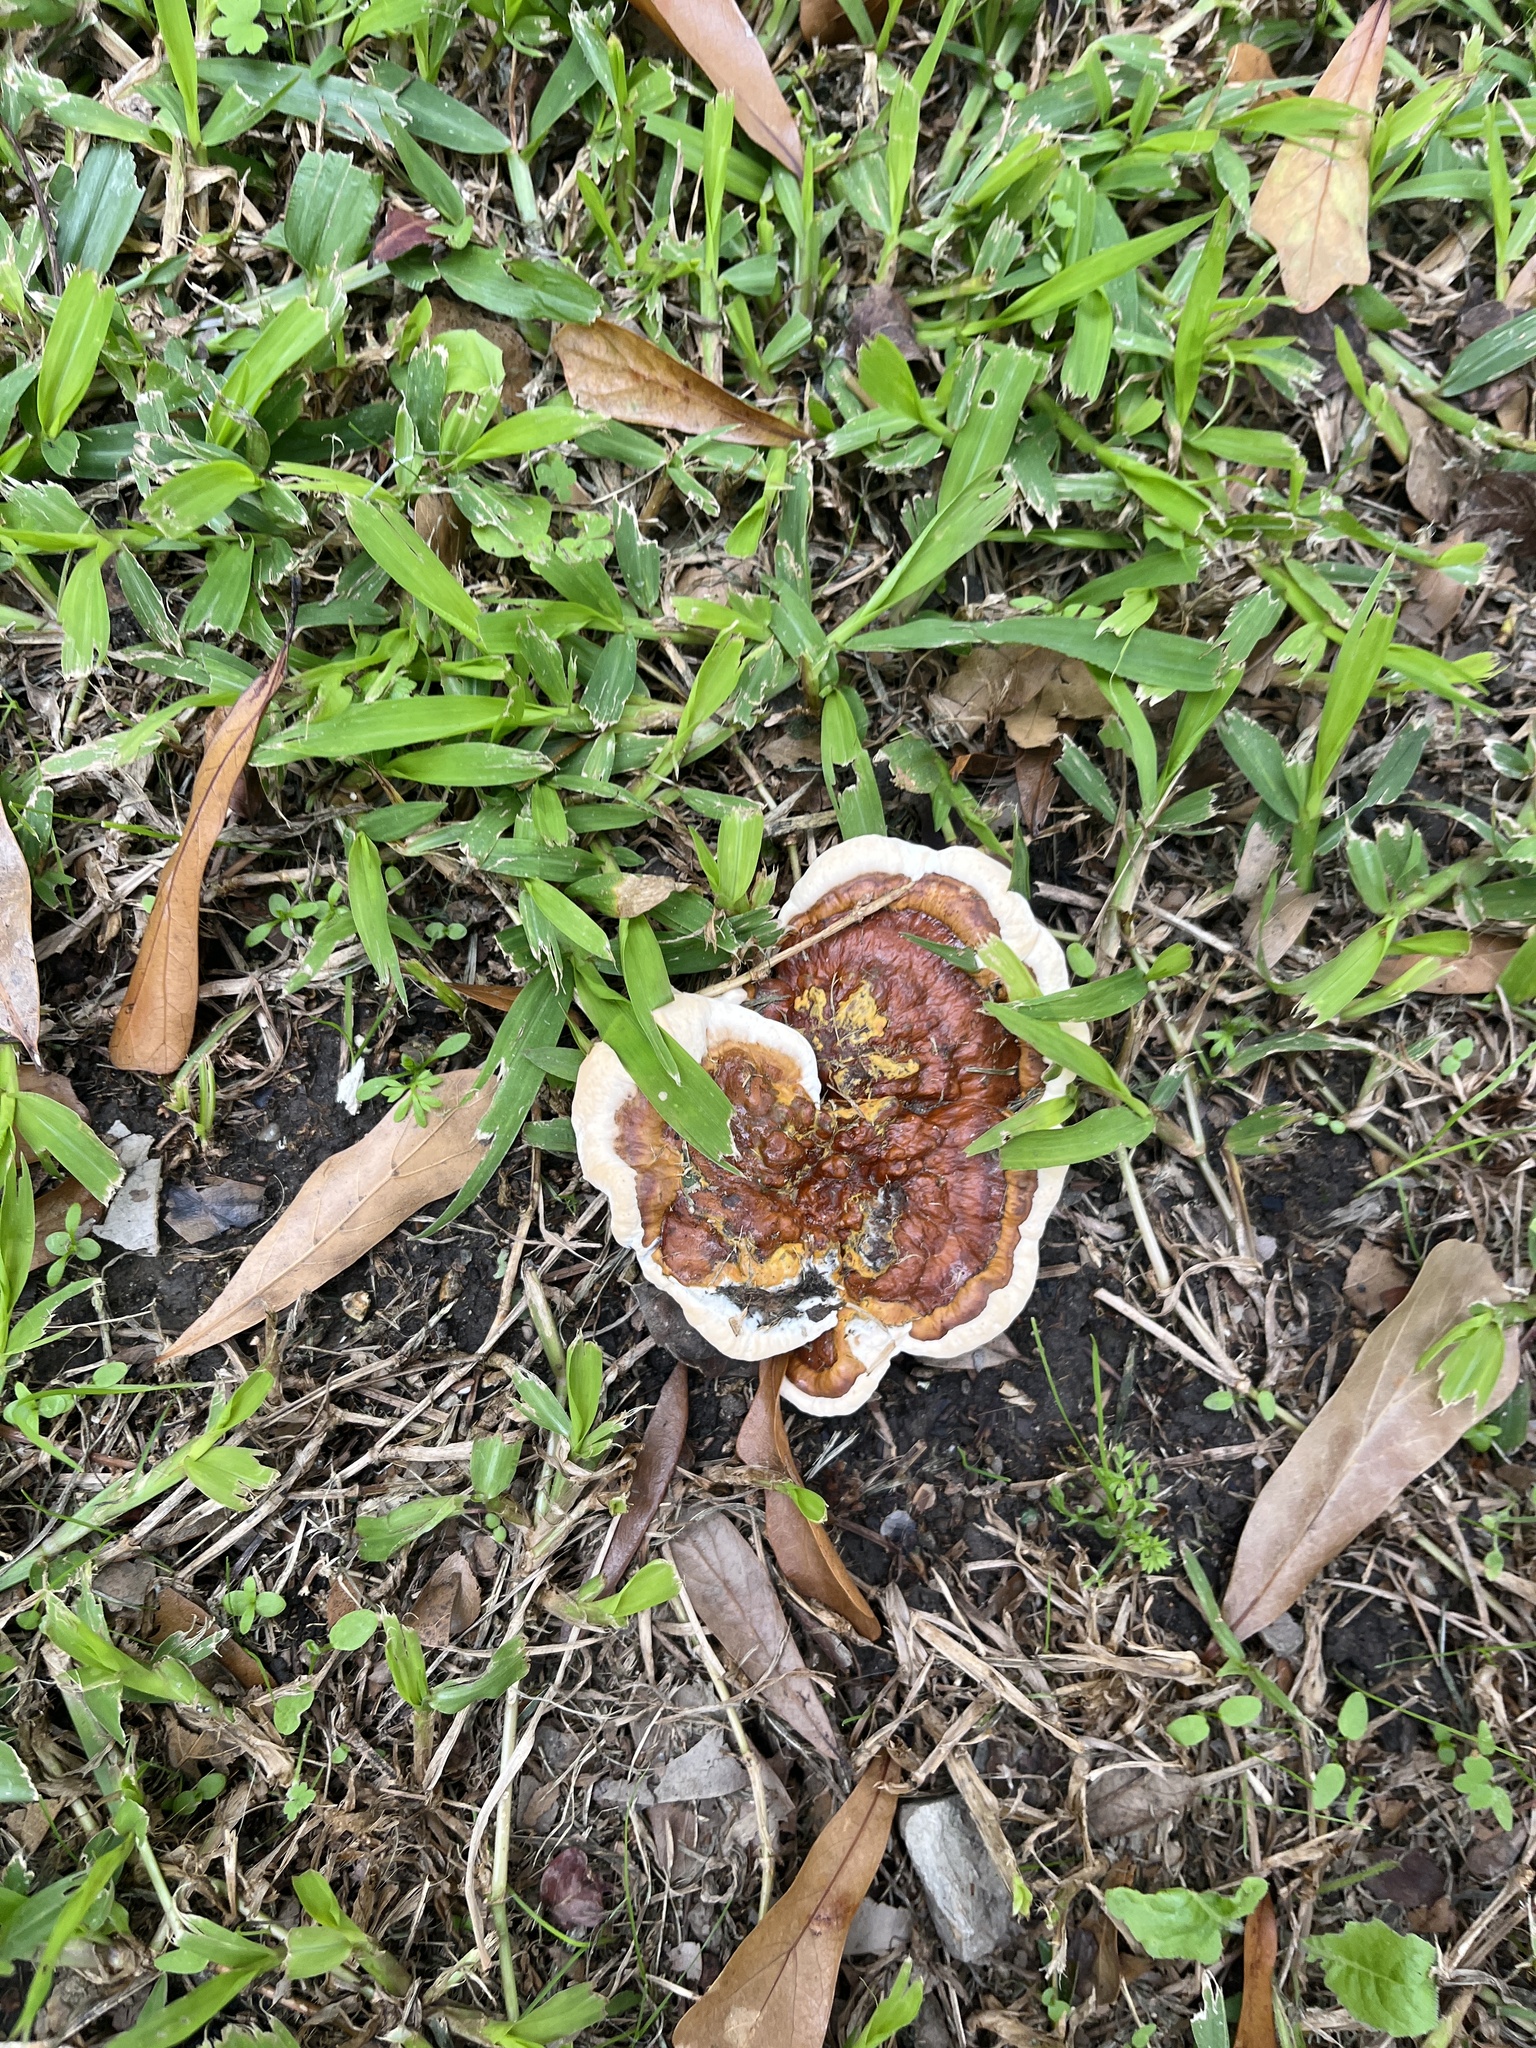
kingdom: Fungi
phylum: Basidiomycota
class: Agaricomycetes
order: Polyporales
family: Polyporaceae
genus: Ganoderma
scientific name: Ganoderma resinaceum
